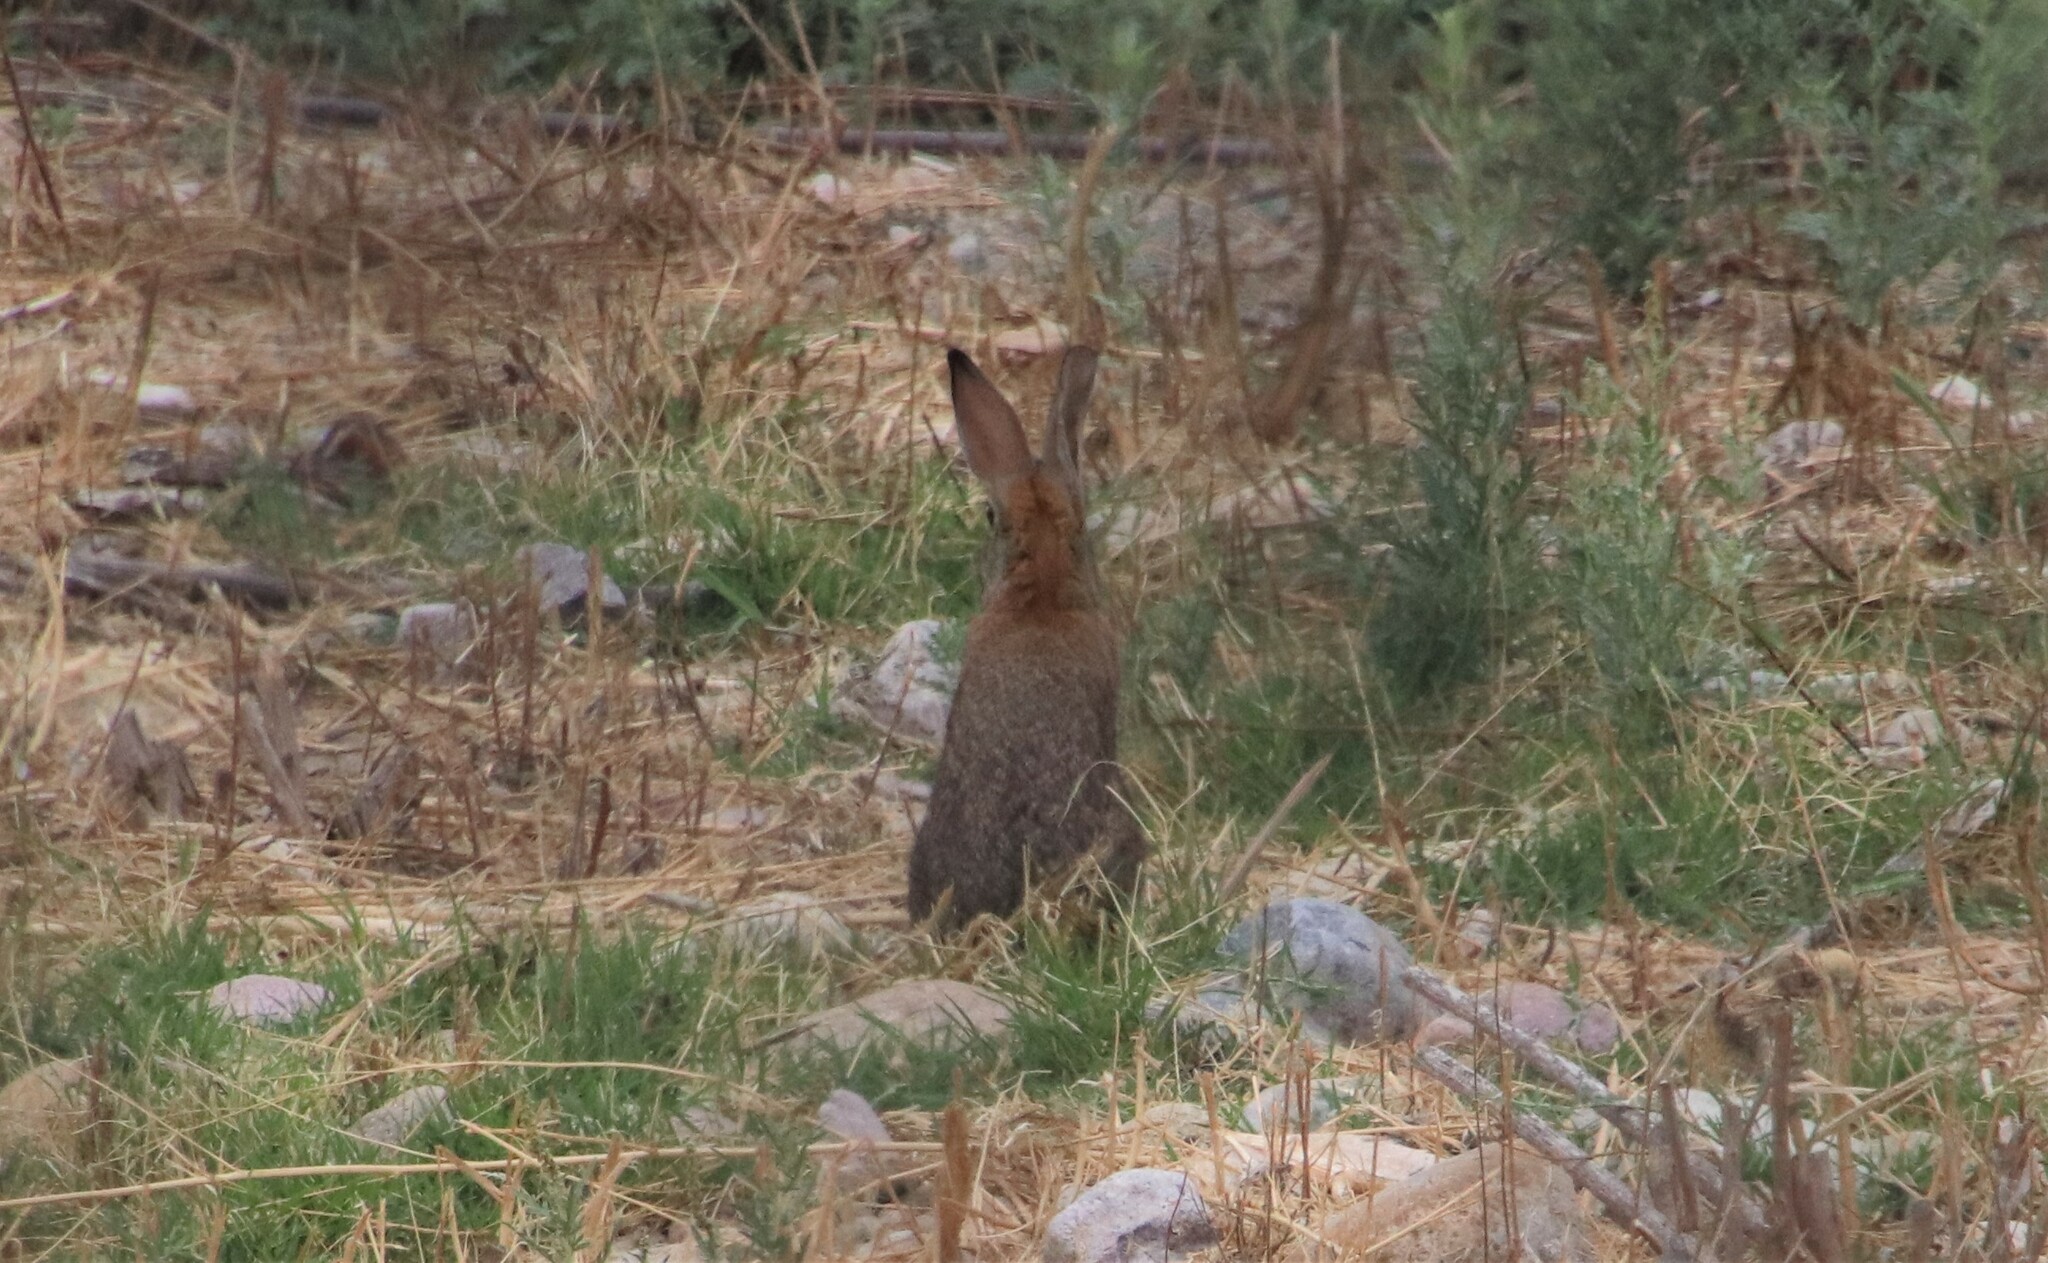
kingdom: Animalia
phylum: Chordata
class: Mammalia
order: Lagomorpha
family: Leporidae
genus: Sylvilagus
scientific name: Sylvilagus audubonii
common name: Desert cottontail
